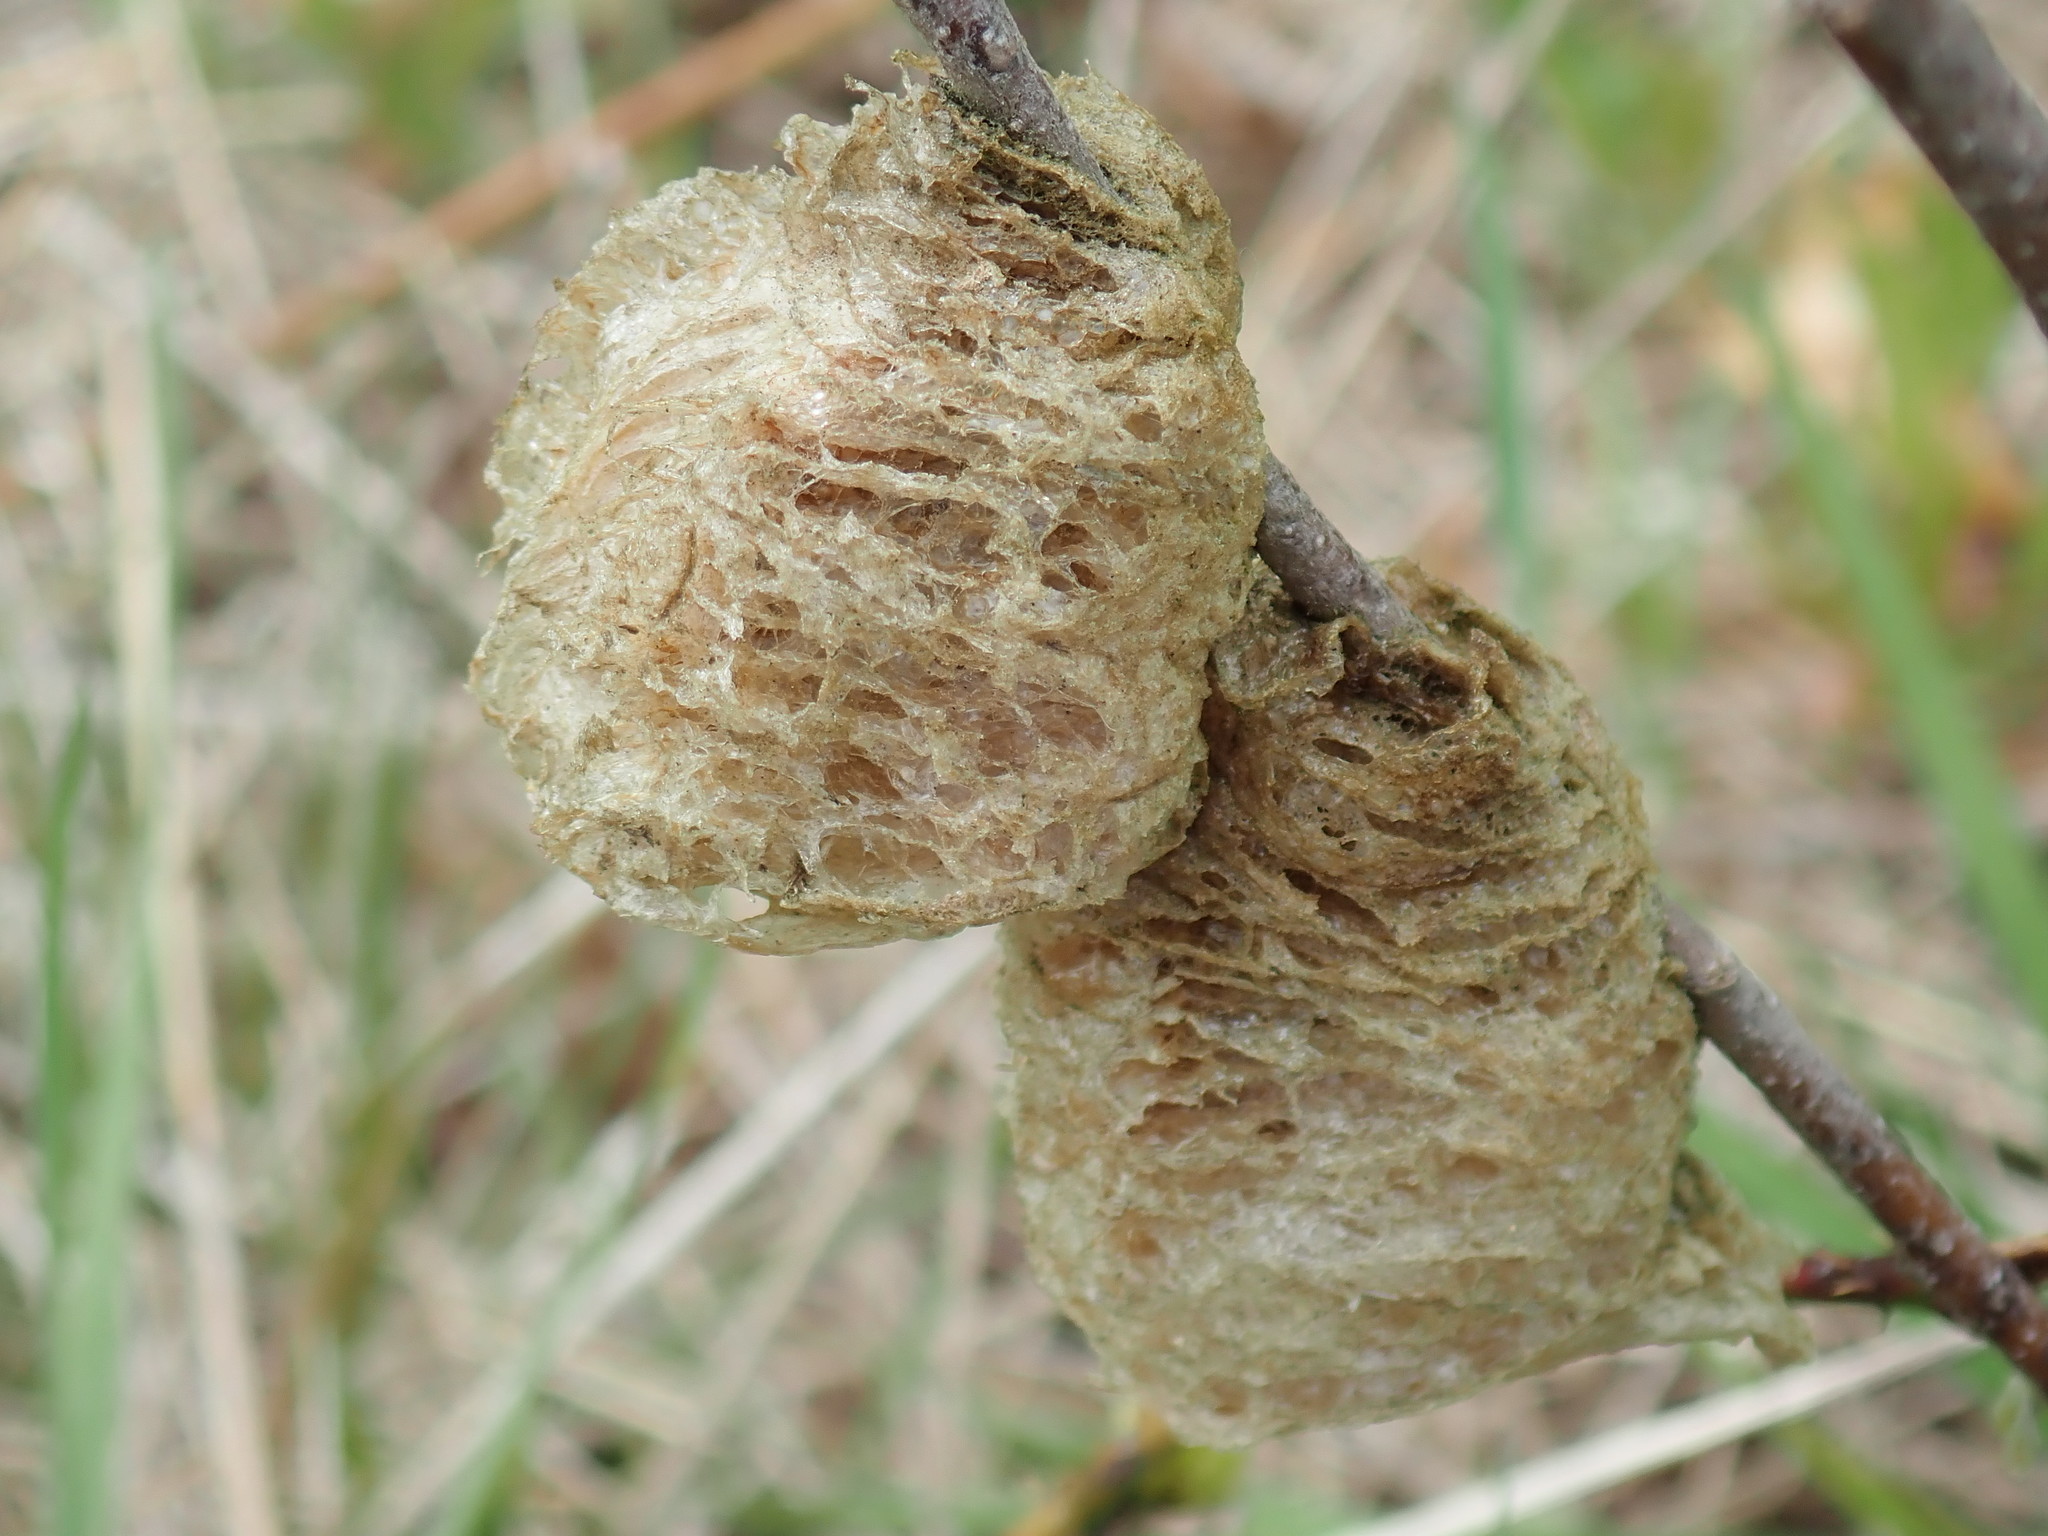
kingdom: Animalia
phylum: Arthropoda
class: Insecta
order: Mantodea
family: Mantidae
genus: Tenodera
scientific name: Tenodera sinensis
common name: Chinese mantis
